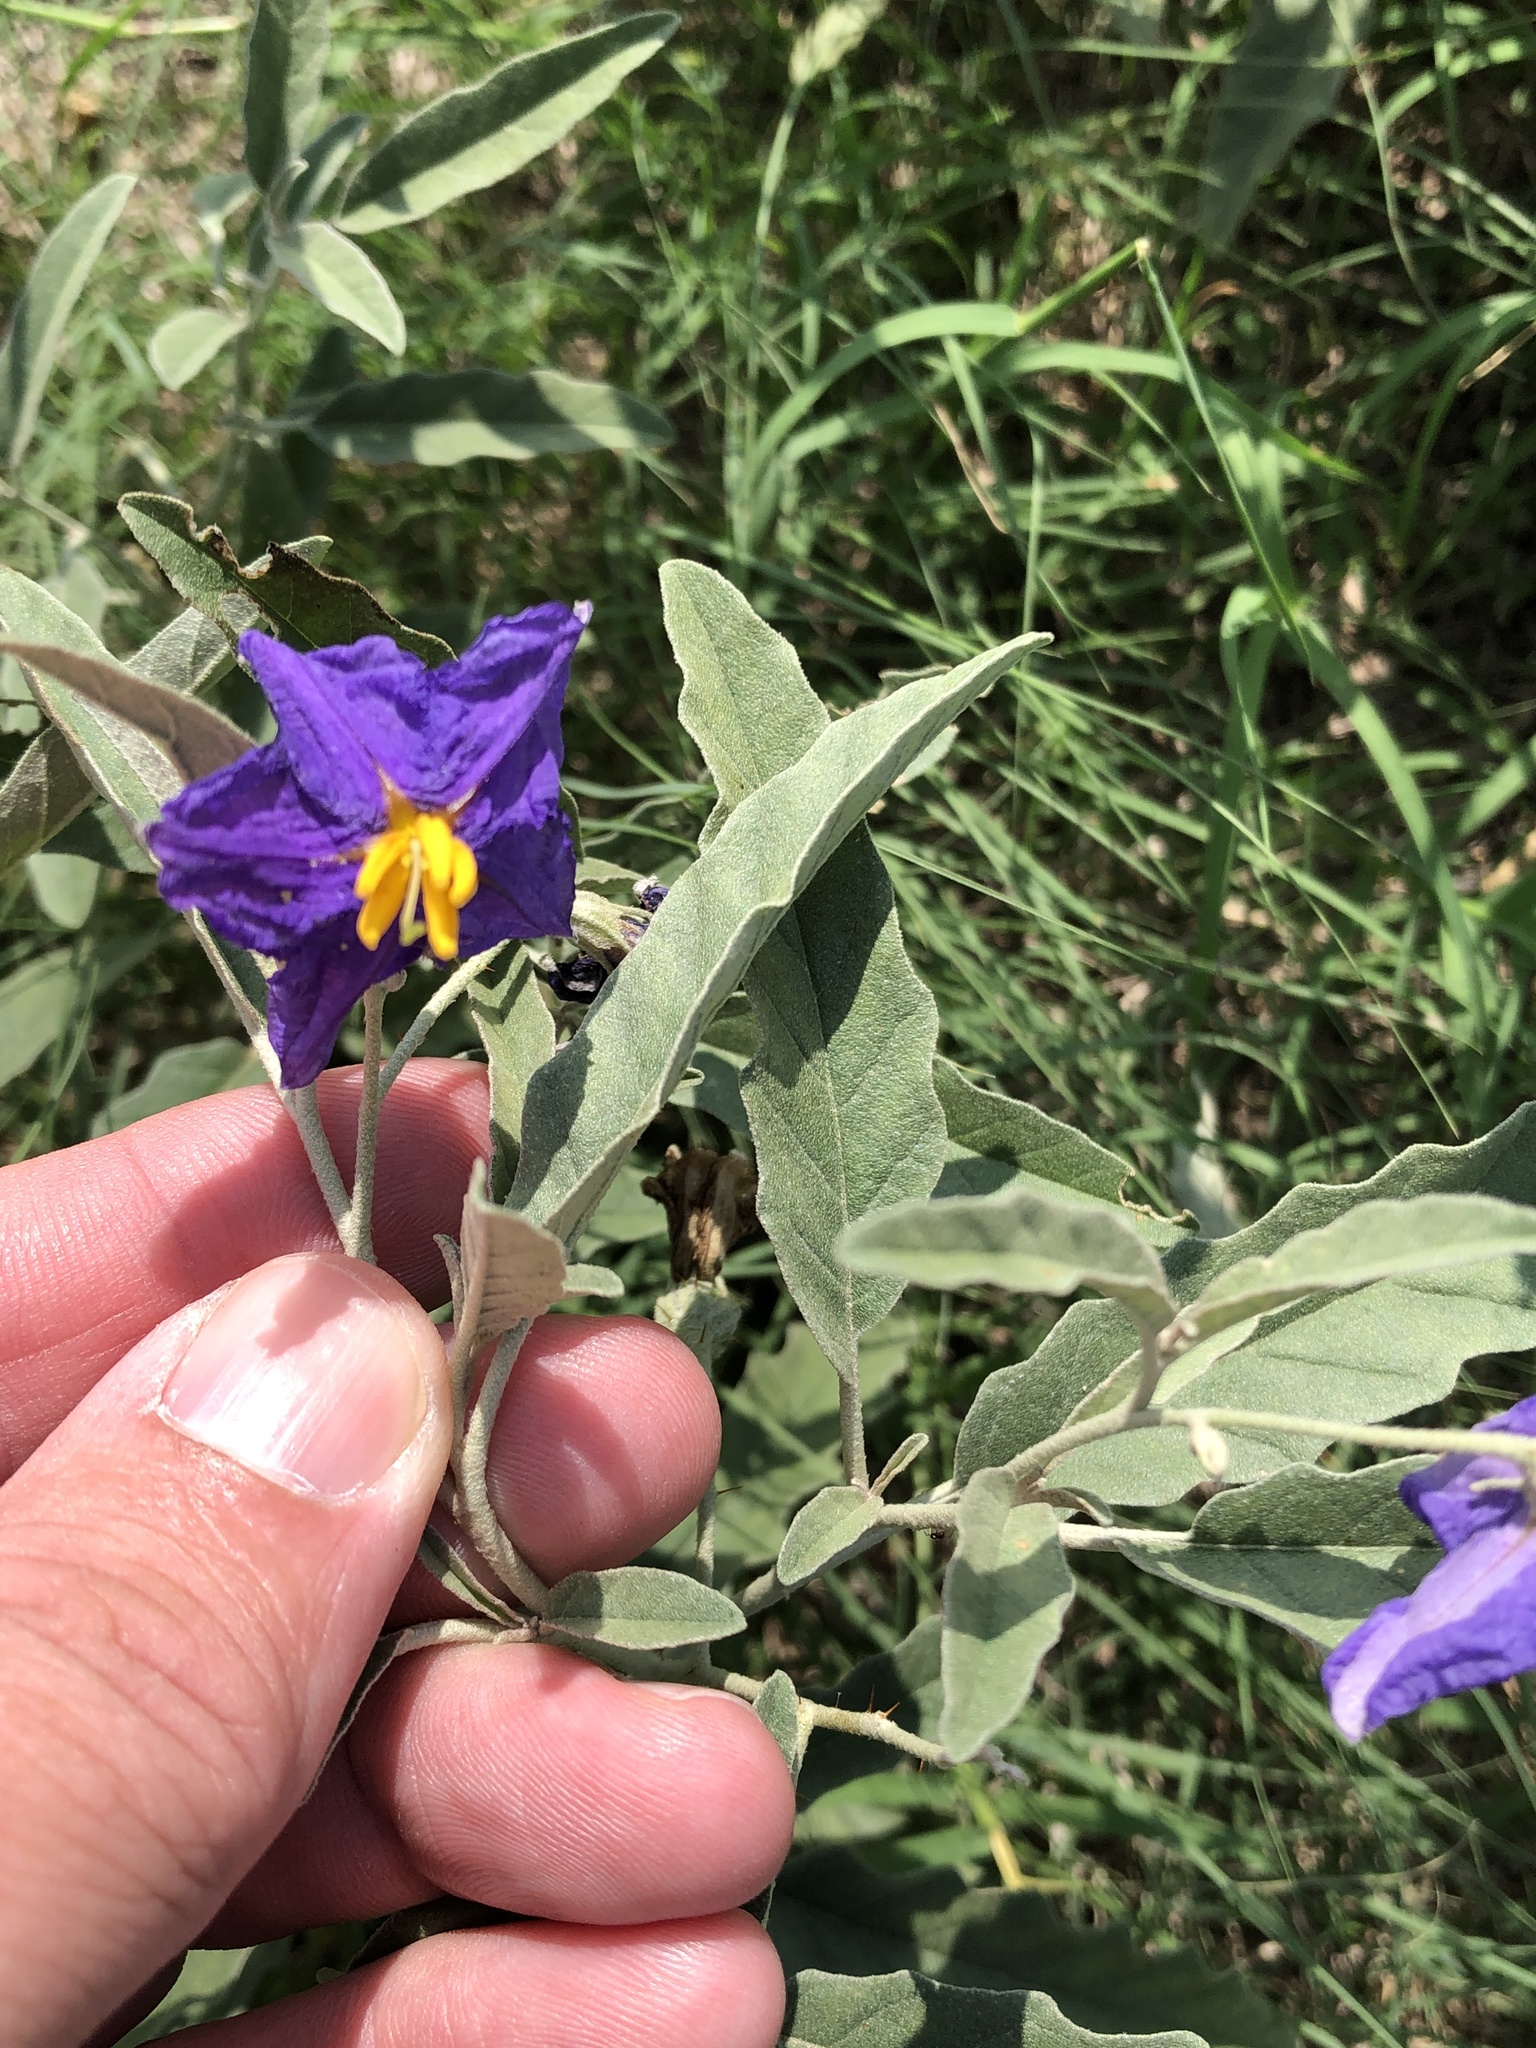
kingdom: Plantae
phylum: Tracheophyta
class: Magnoliopsida
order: Solanales
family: Solanaceae
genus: Solanum
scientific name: Solanum elaeagnifolium
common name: Silverleaf nightshade
